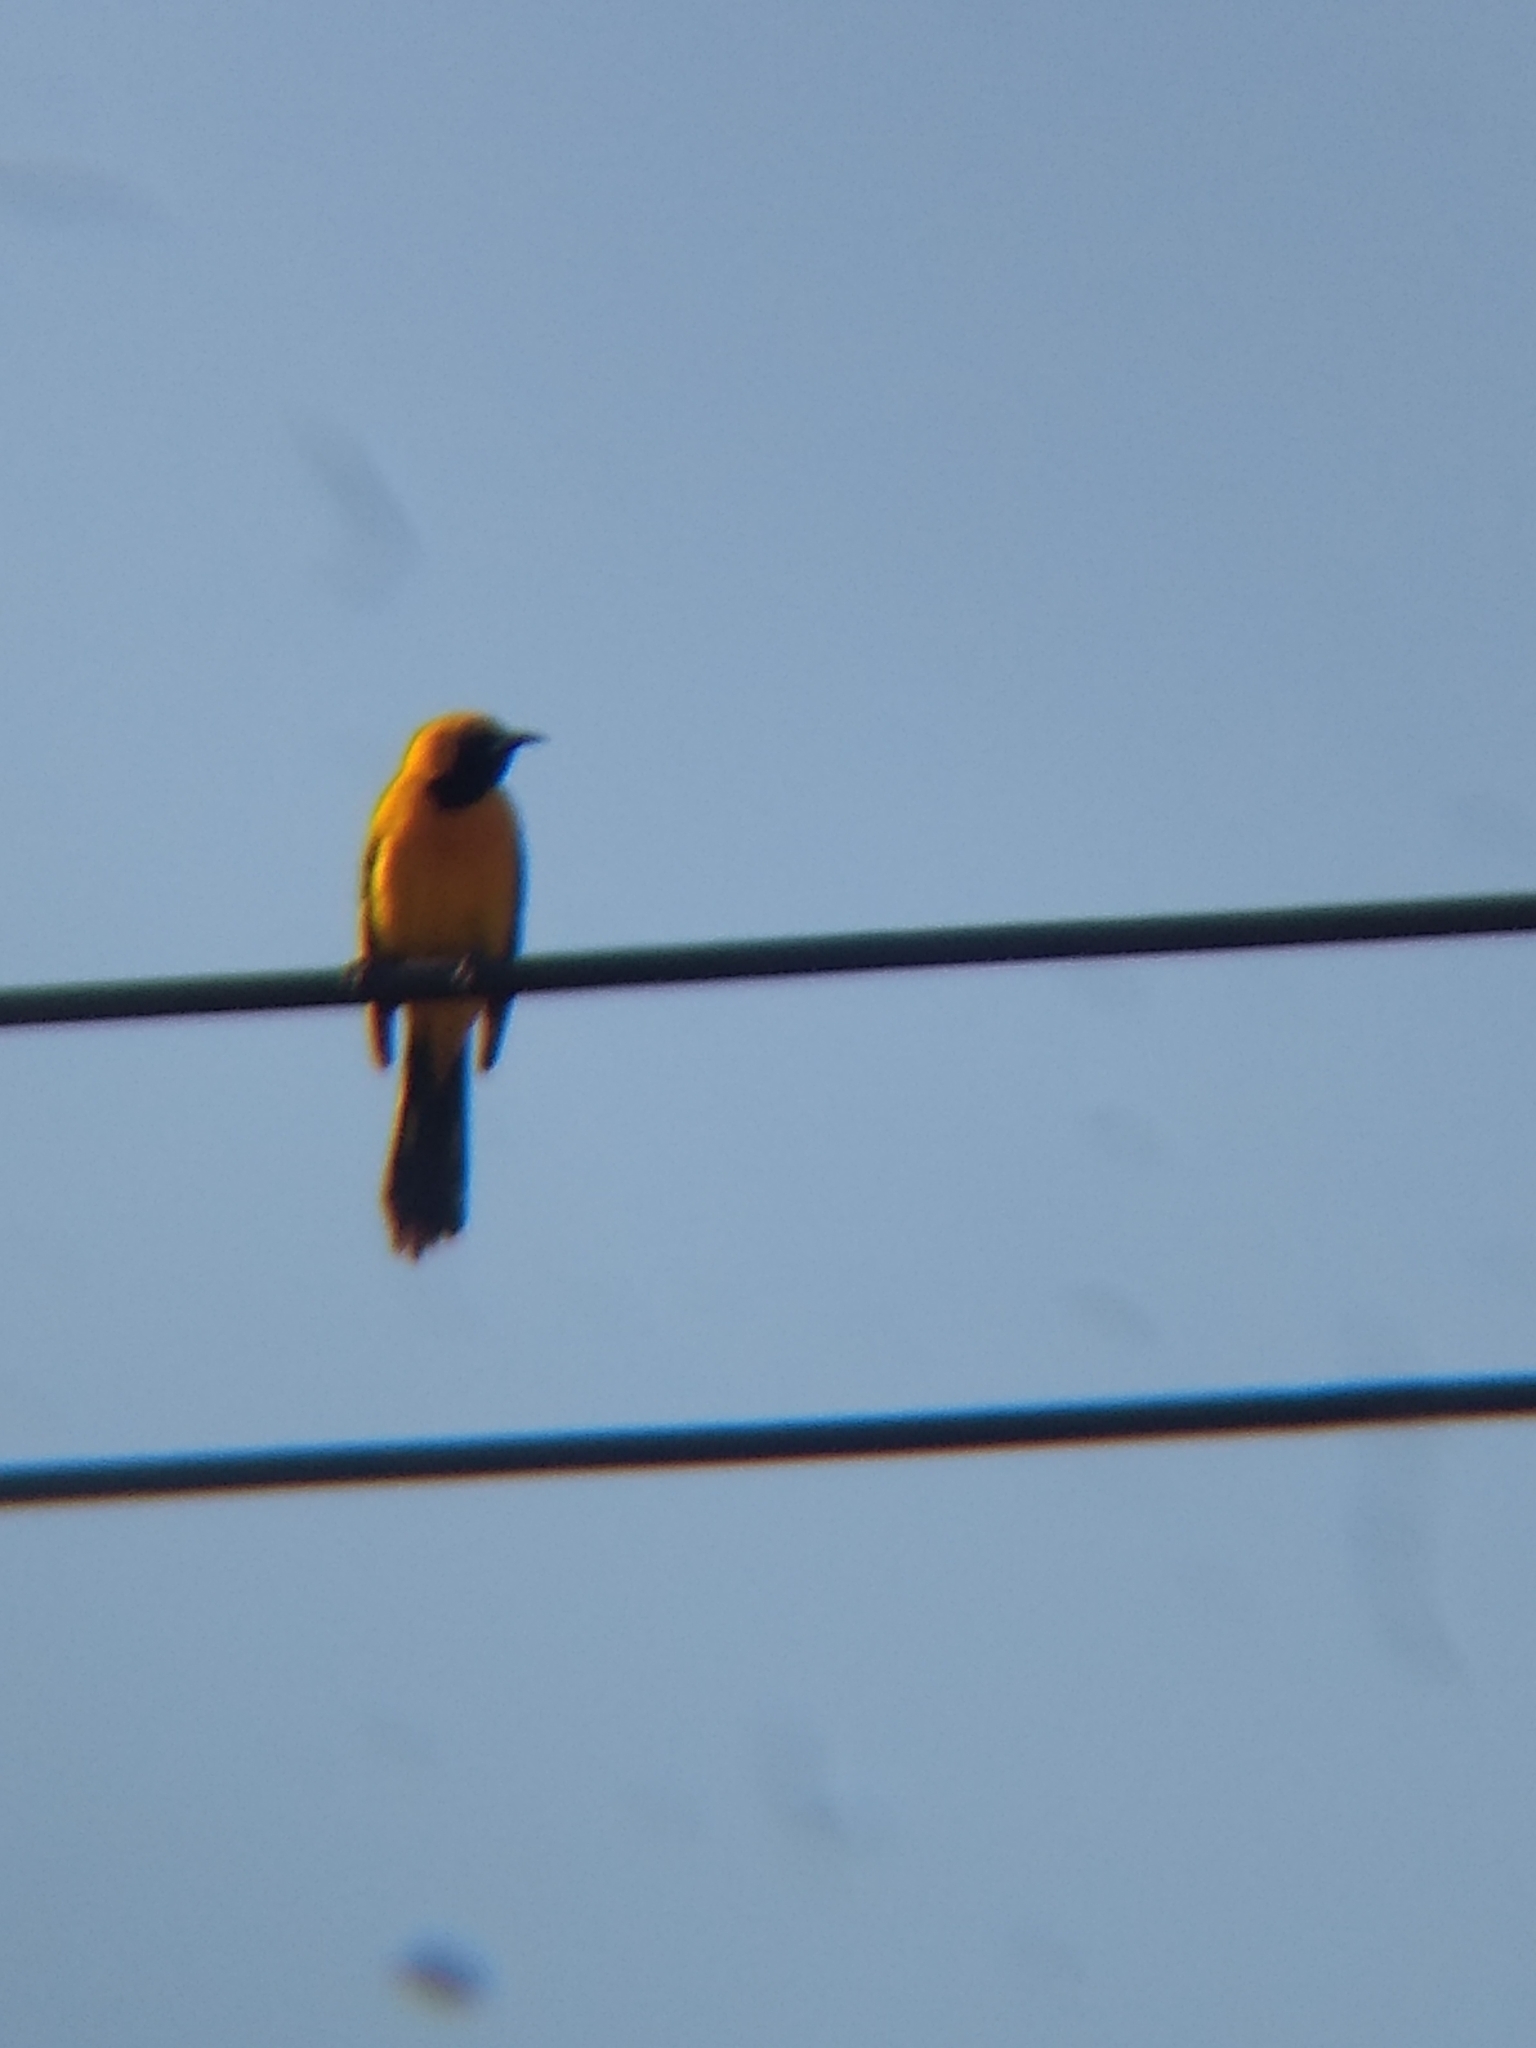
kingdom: Animalia
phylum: Chordata
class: Aves
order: Passeriformes
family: Icteridae
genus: Icterus
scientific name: Icterus cucullatus
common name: Hooded oriole
